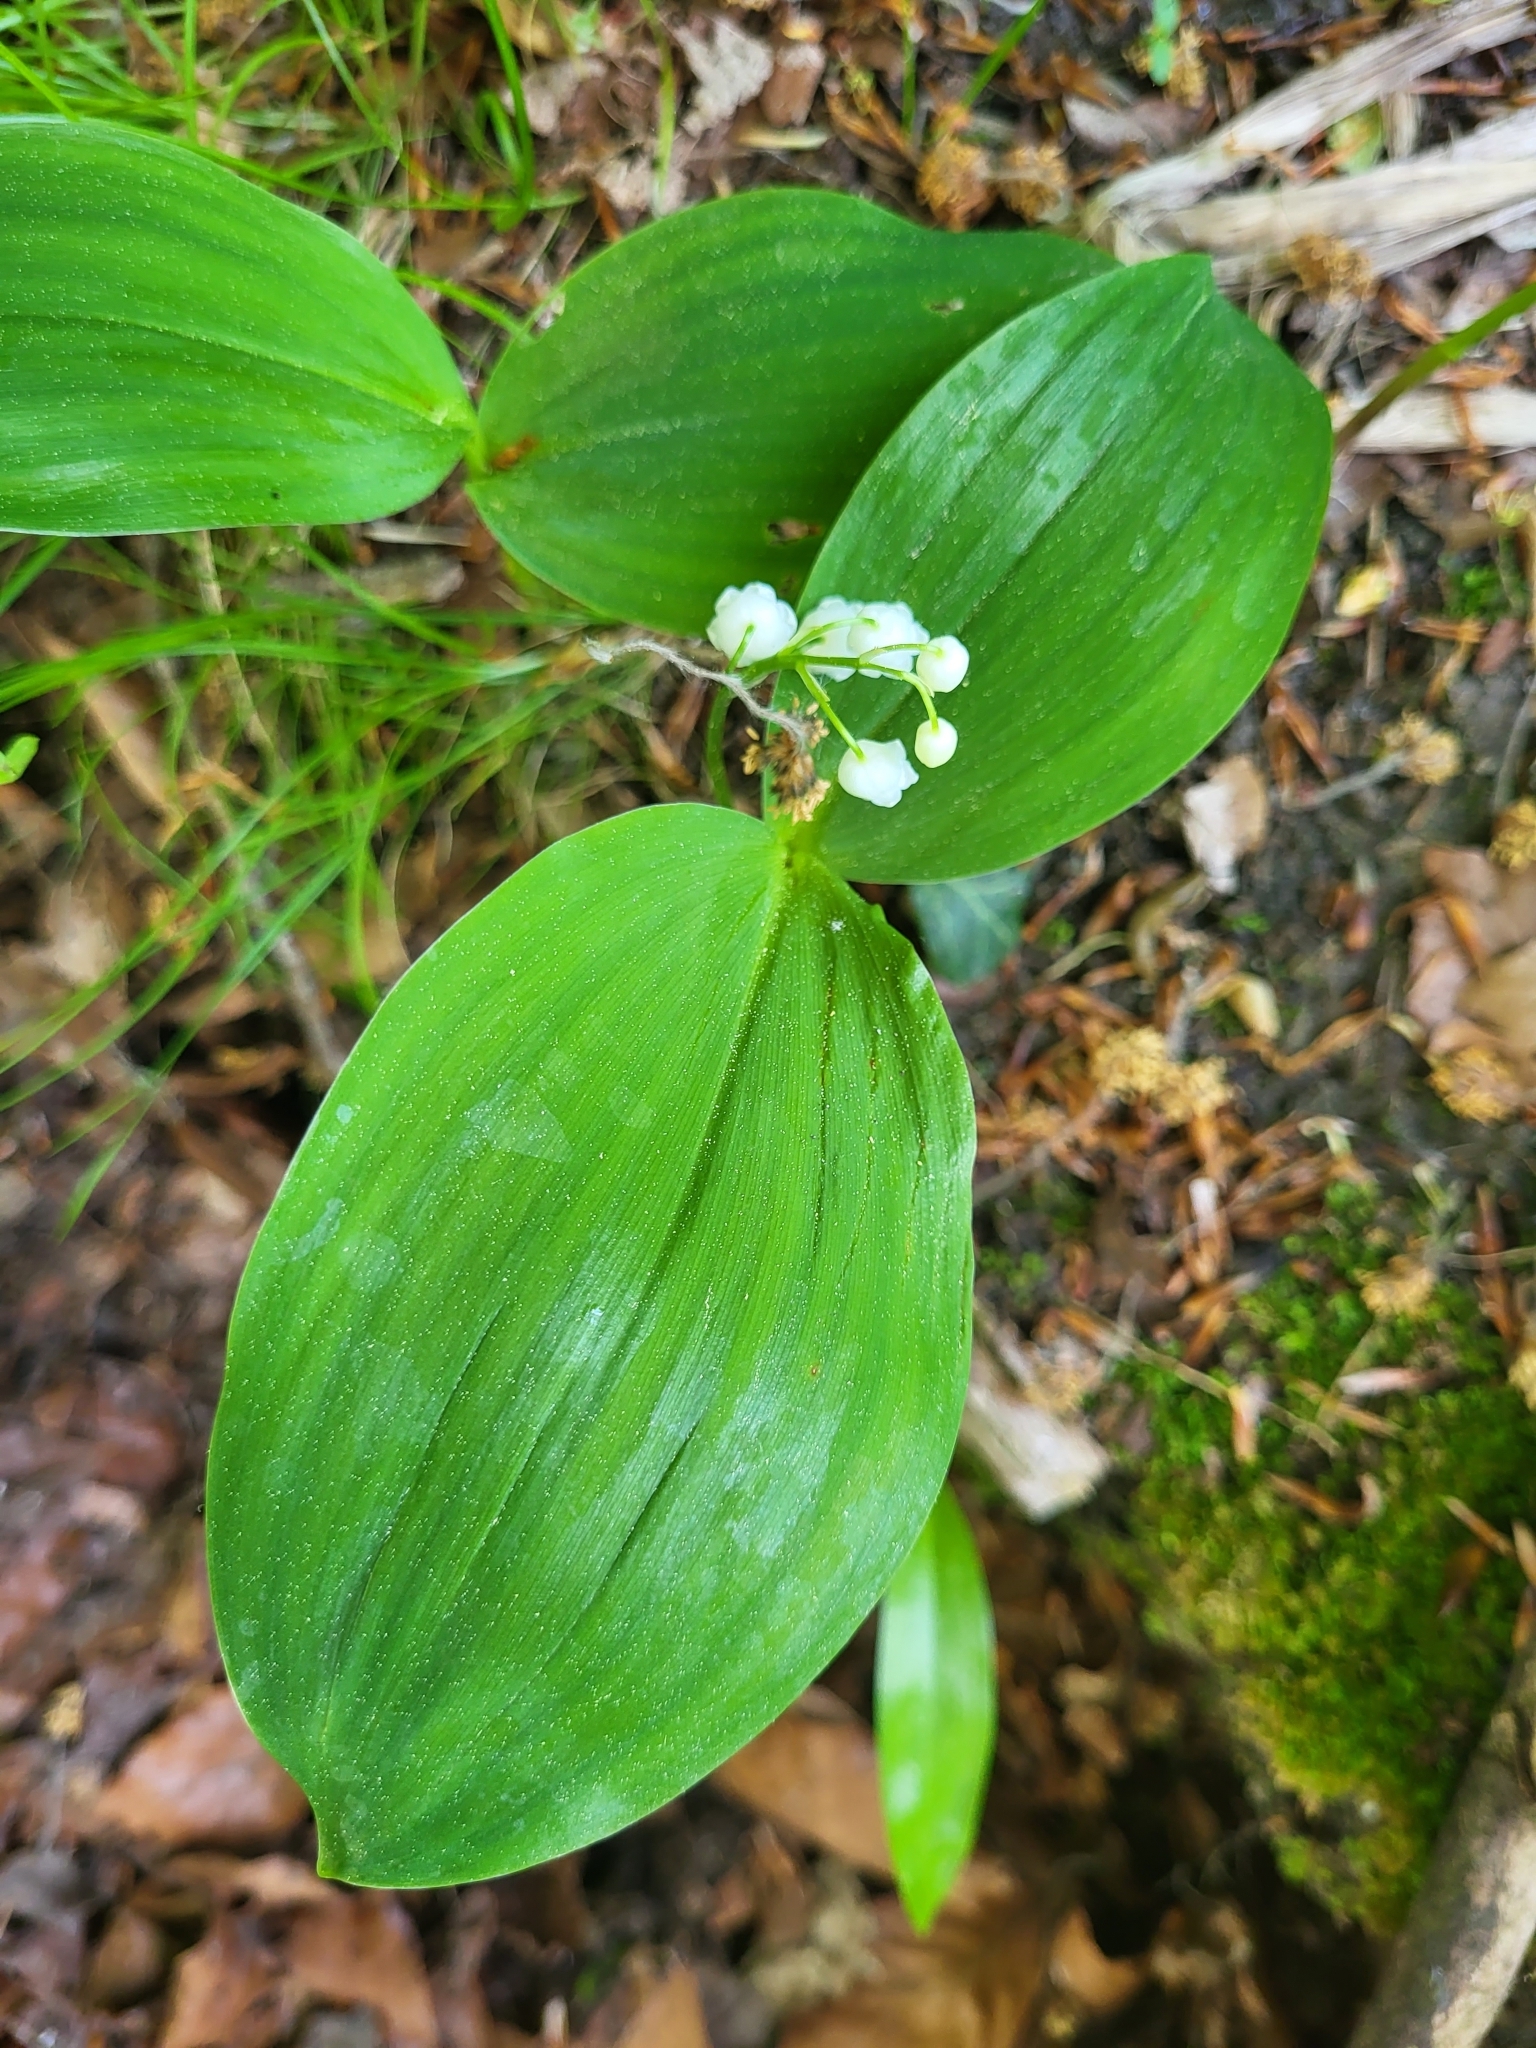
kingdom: Plantae
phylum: Tracheophyta
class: Liliopsida
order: Asparagales
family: Asparagaceae
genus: Convallaria
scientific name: Convallaria majalis
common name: Lily-of-the-valley
